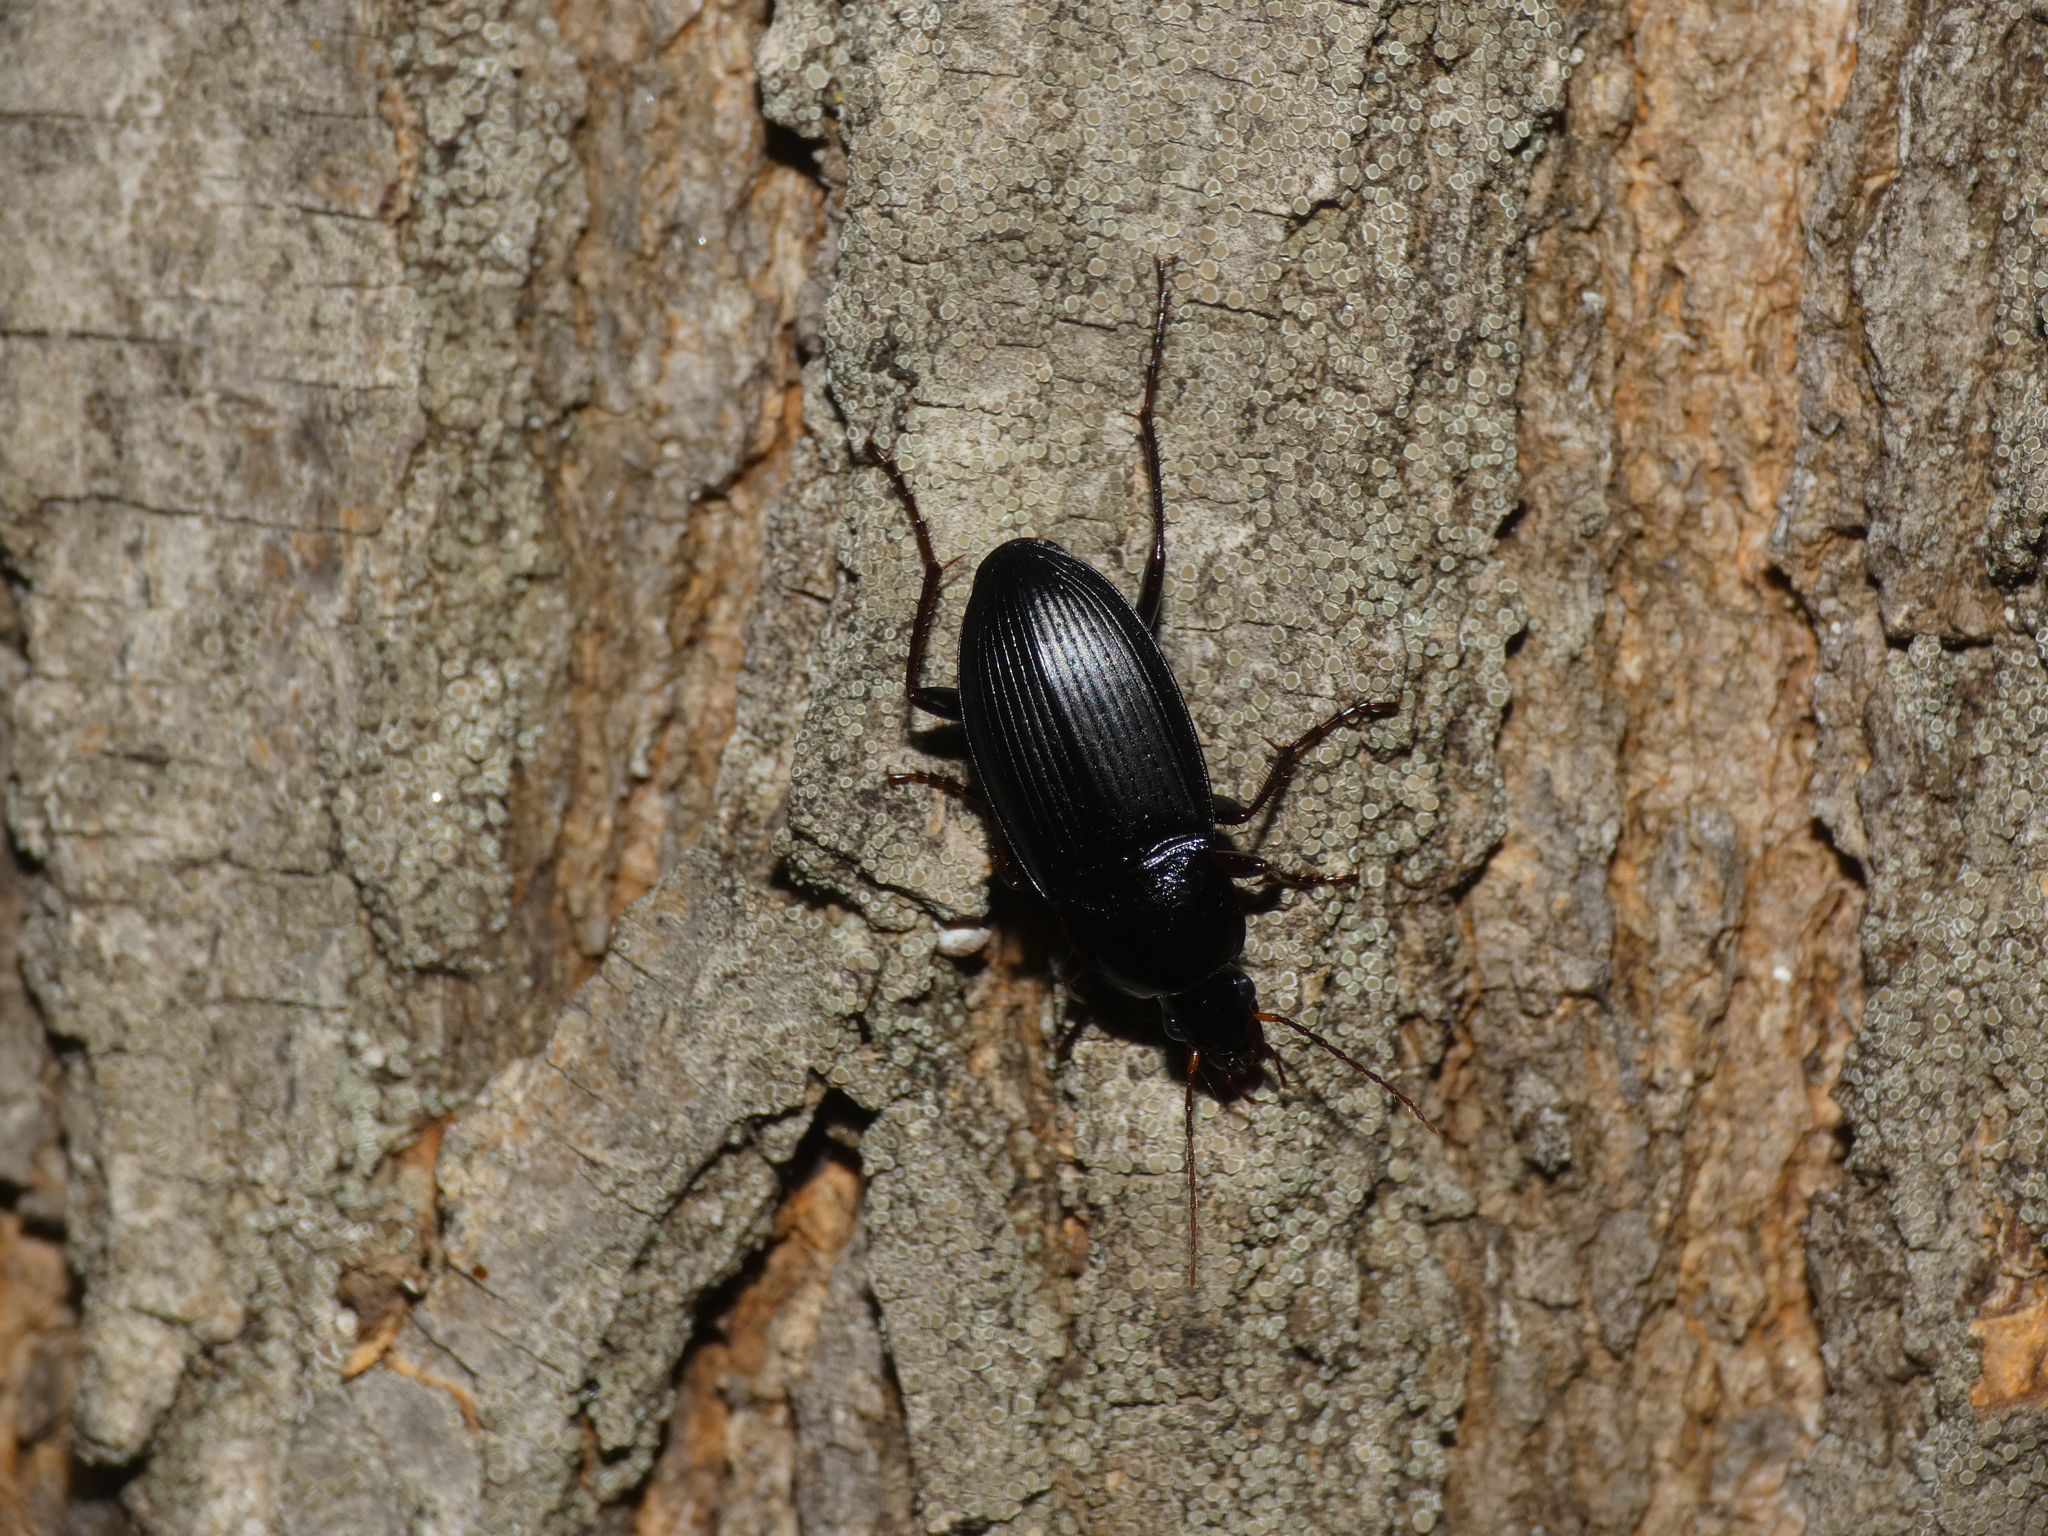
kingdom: Animalia
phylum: Arthropoda
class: Insecta
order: Coleoptera
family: Carabidae
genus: Calathus
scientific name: Calathus erratus
